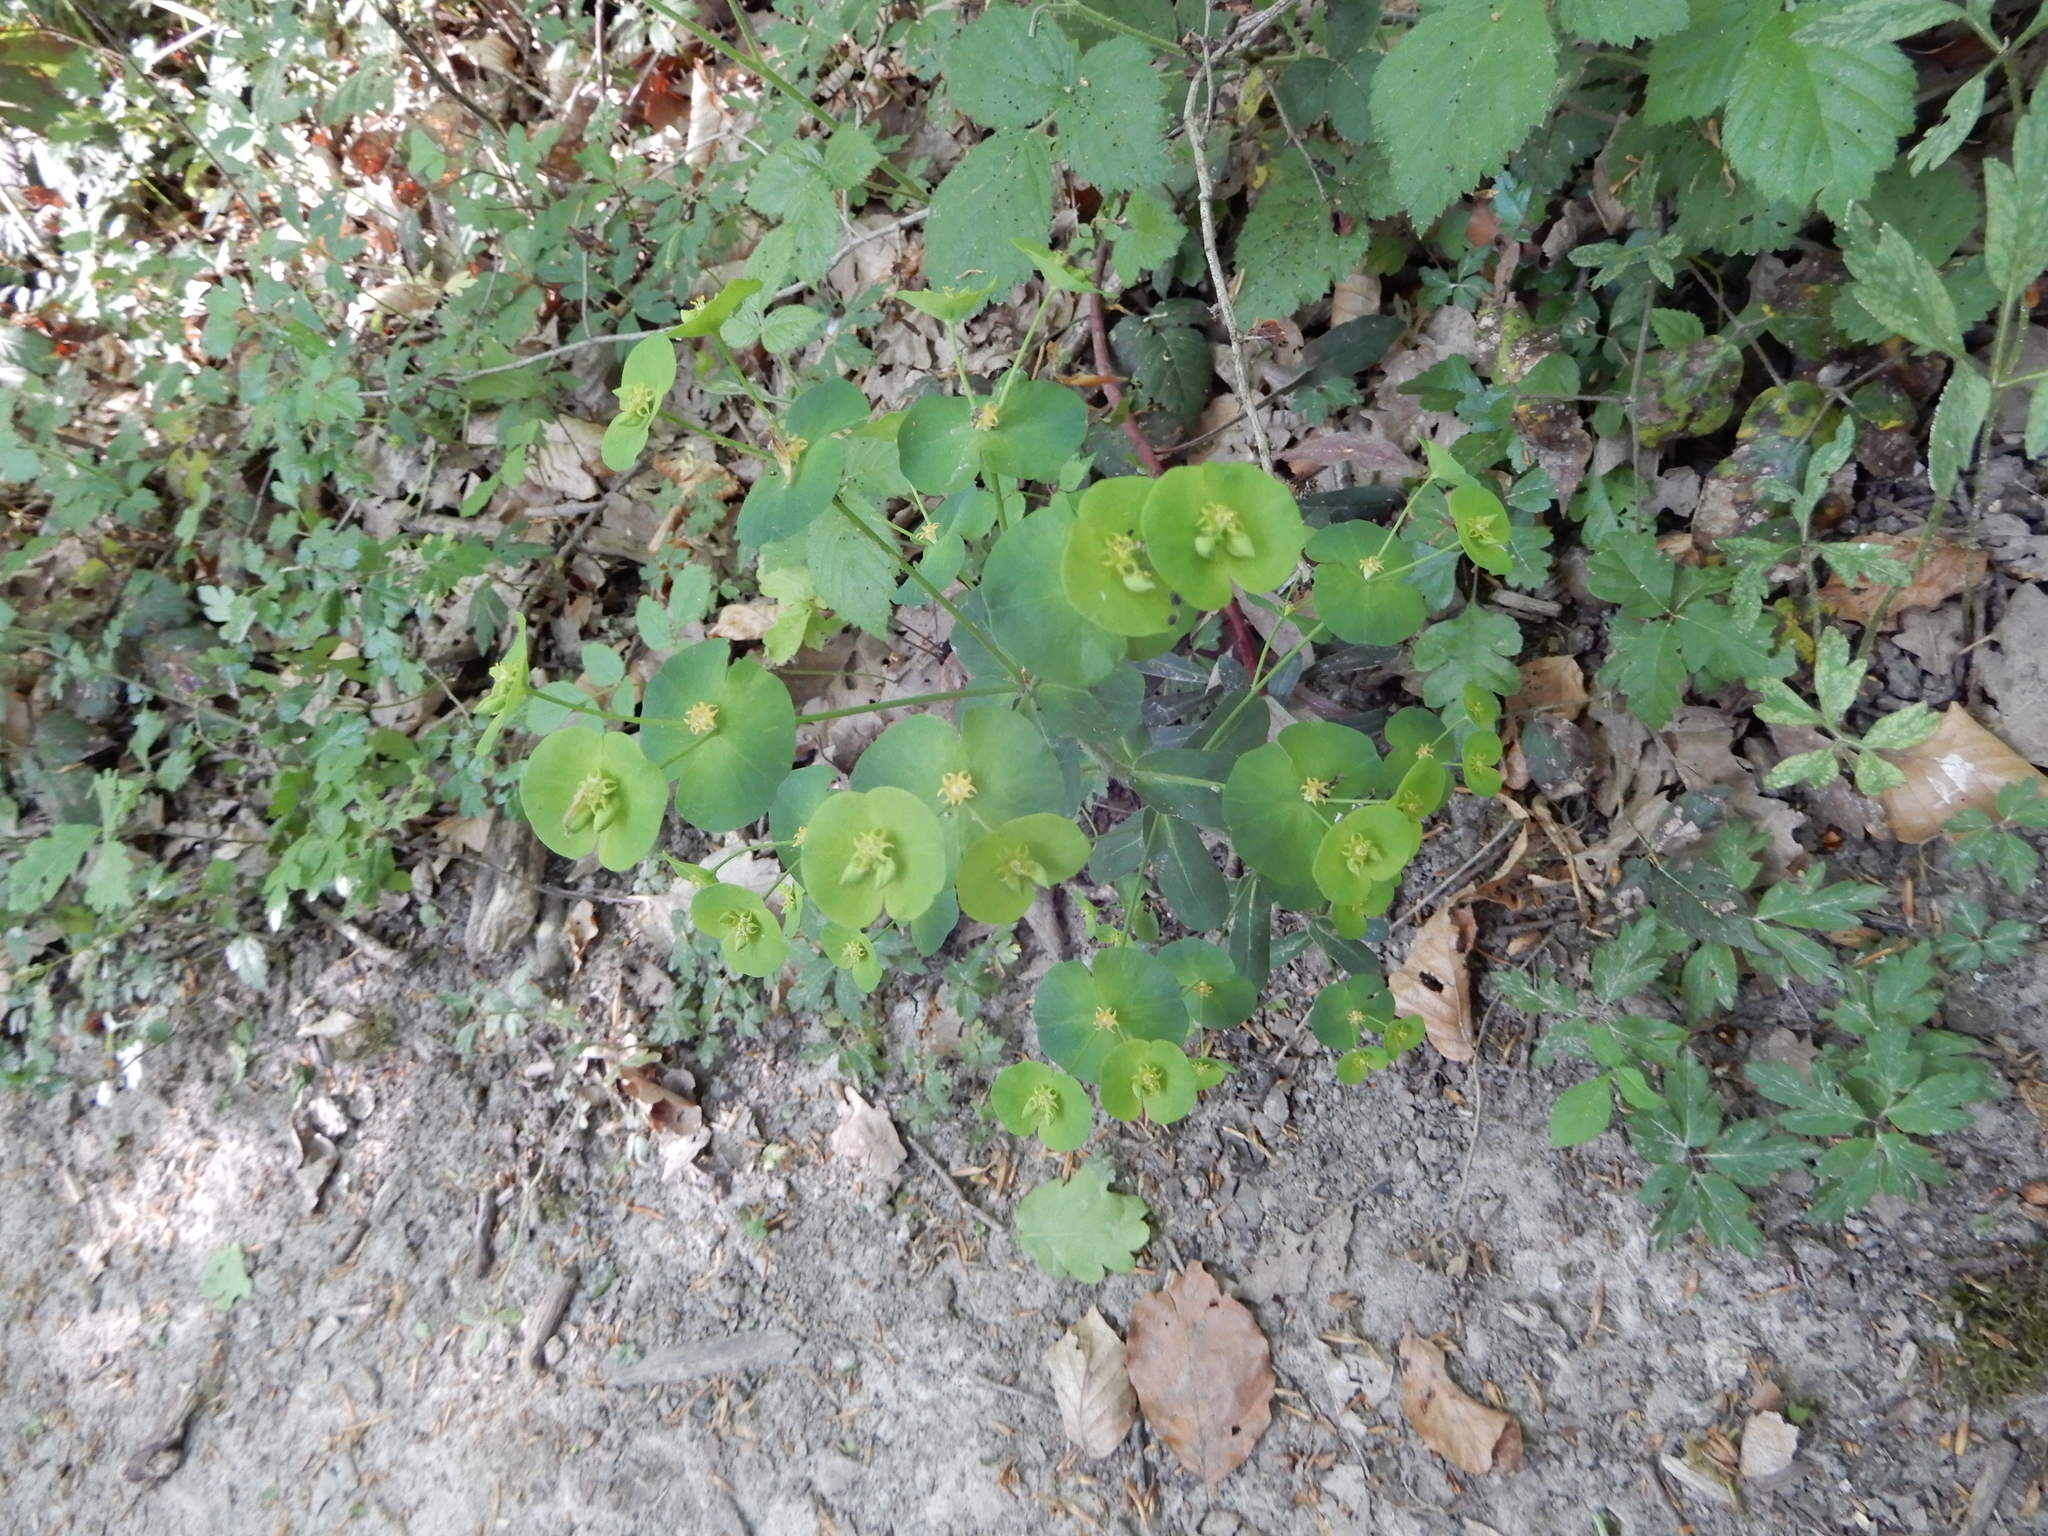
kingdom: Plantae
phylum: Tracheophyta
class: Magnoliopsida
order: Malpighiales
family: Euphorbiaceae
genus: Euphorbia
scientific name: Euphorbia amygdaloides
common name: Wood spurge
